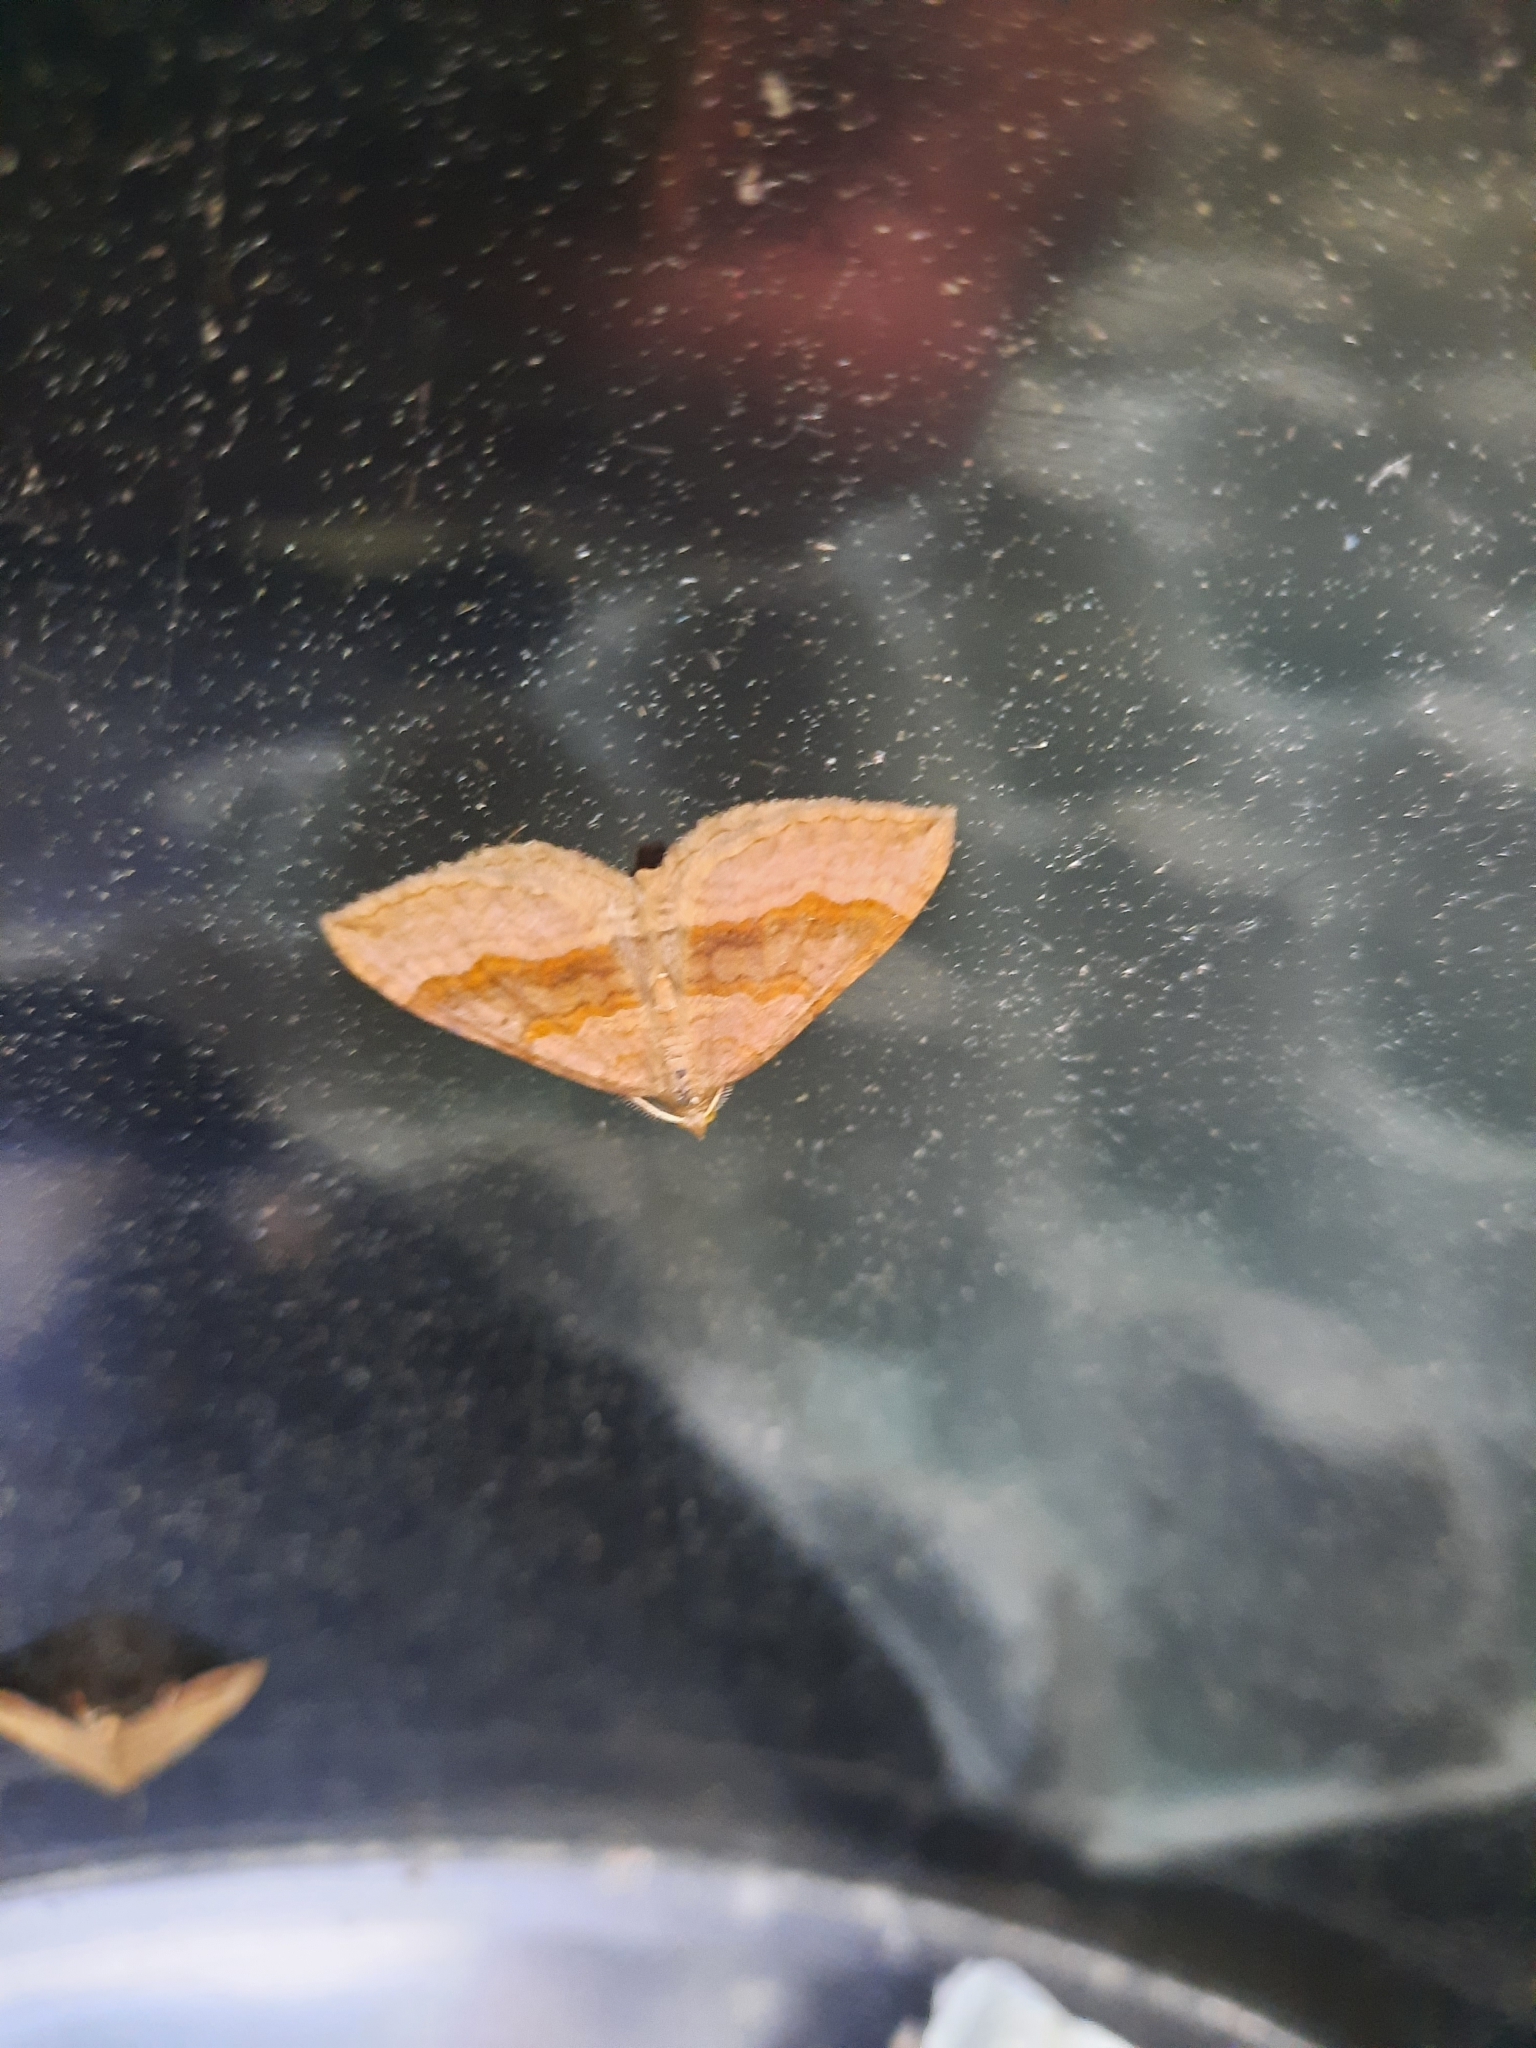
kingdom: Animalia
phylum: Arthropoda
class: Insecta
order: Lepidoptera
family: Geometridae
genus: Scotopteryx
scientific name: Scotopteryx chenopodiata
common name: Shaded broad-bar
